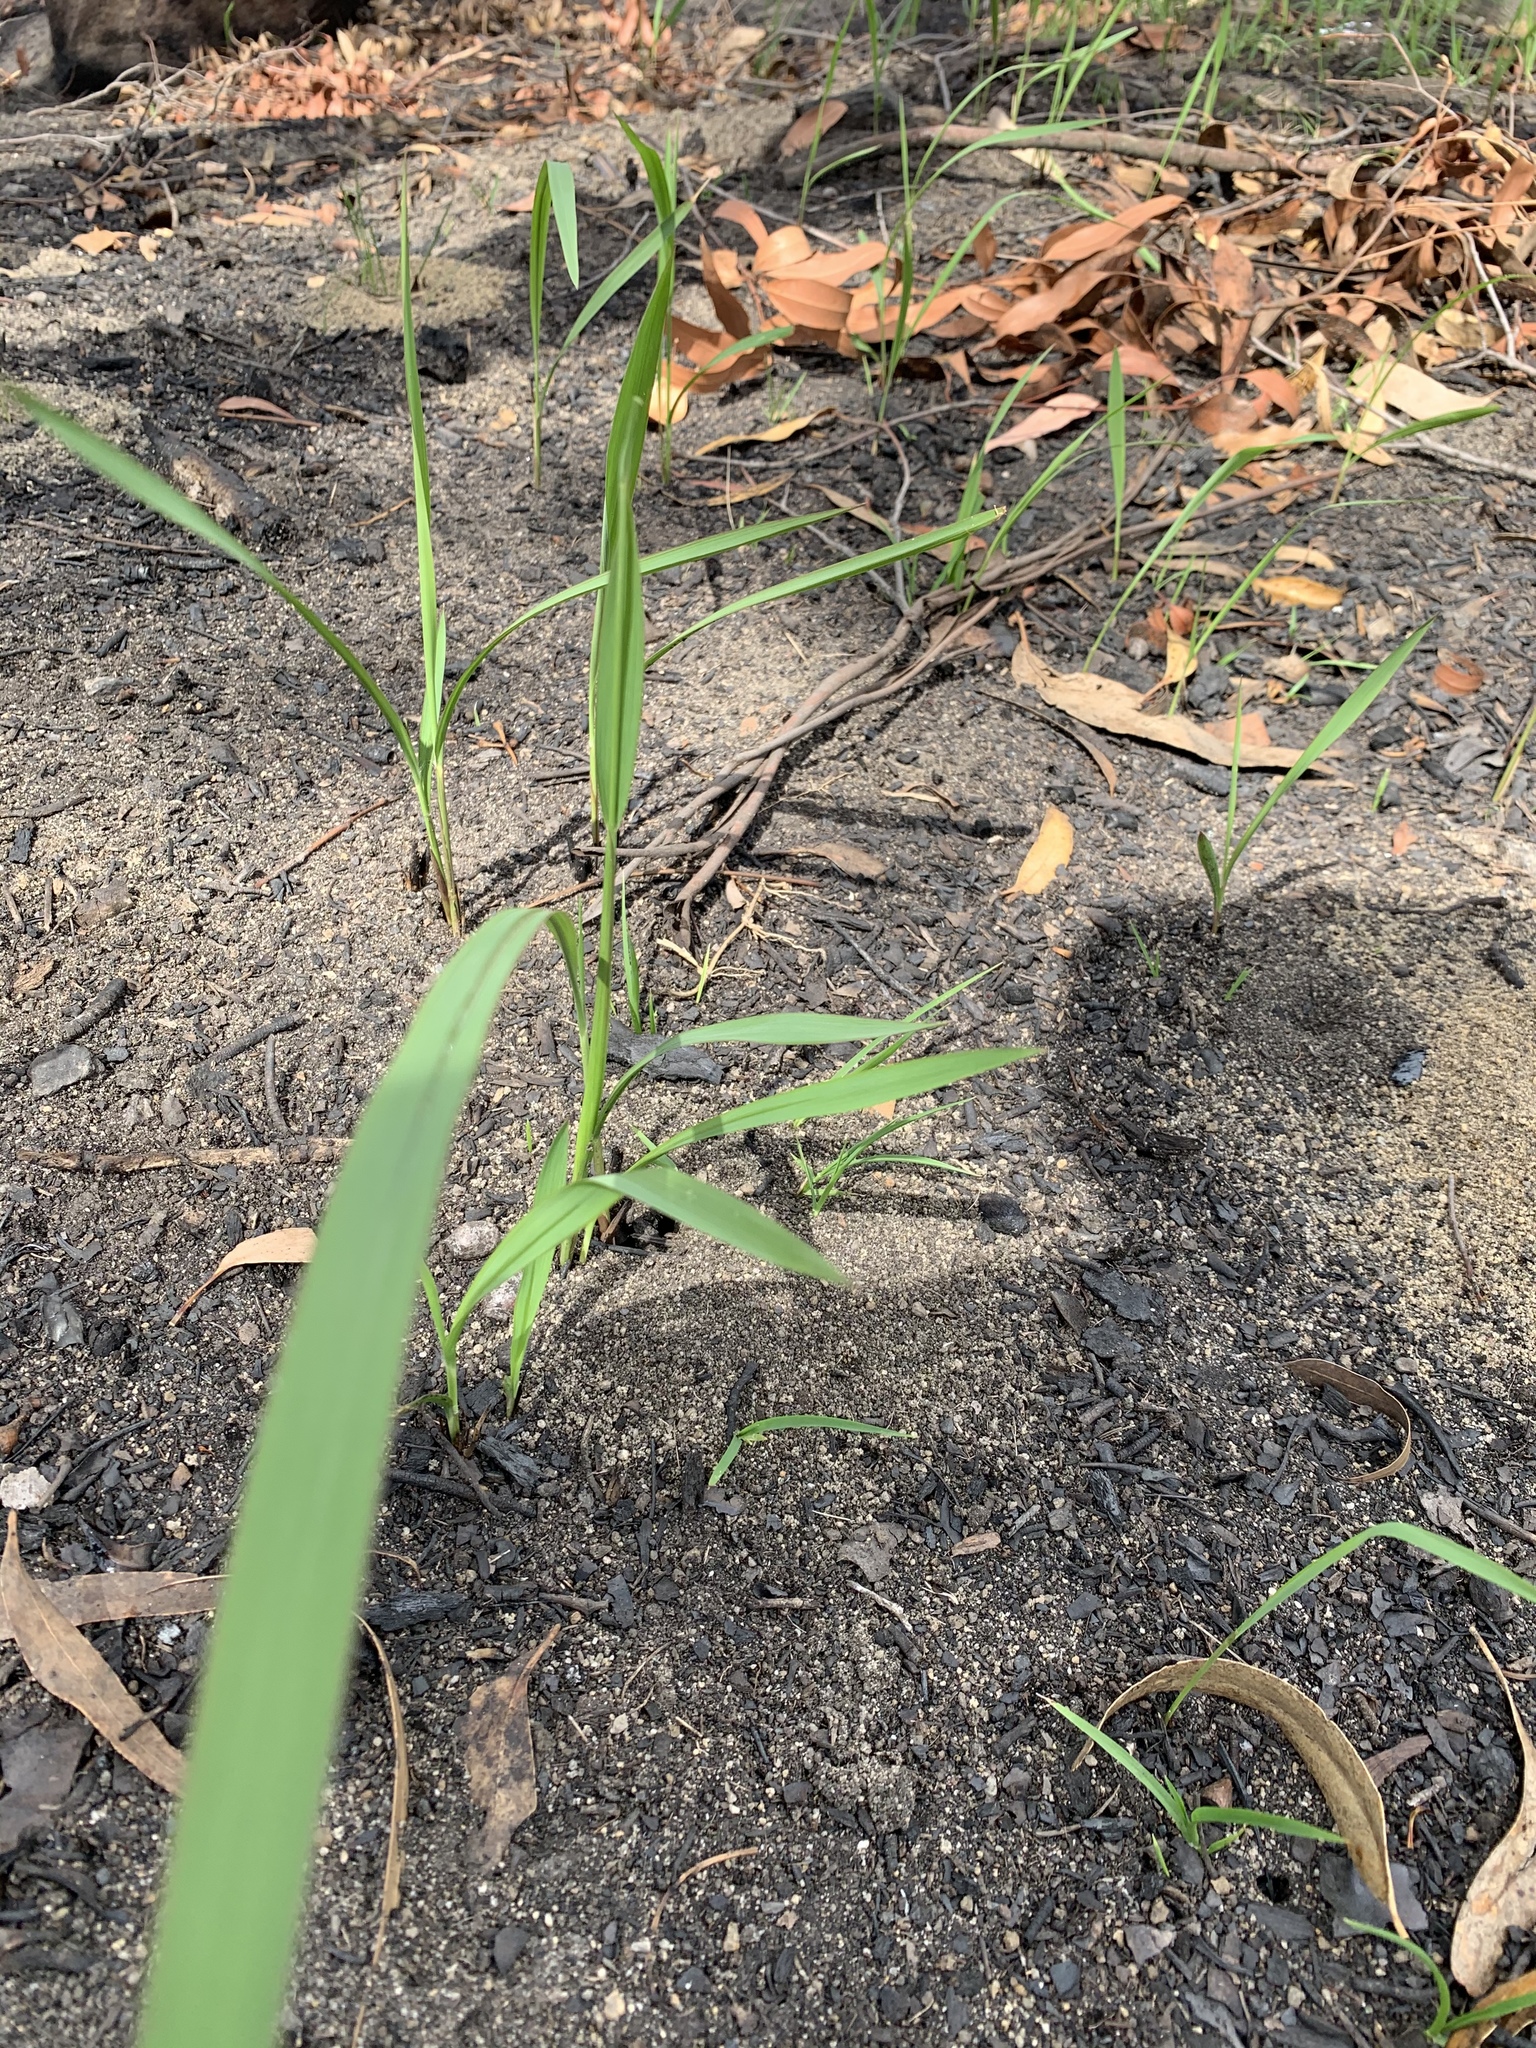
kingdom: Plantae
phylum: Tracheophyta
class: Liliopsida
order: Poales
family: Poaceae
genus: Imperata
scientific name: Imperata cylindrica
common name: Cogongrass
